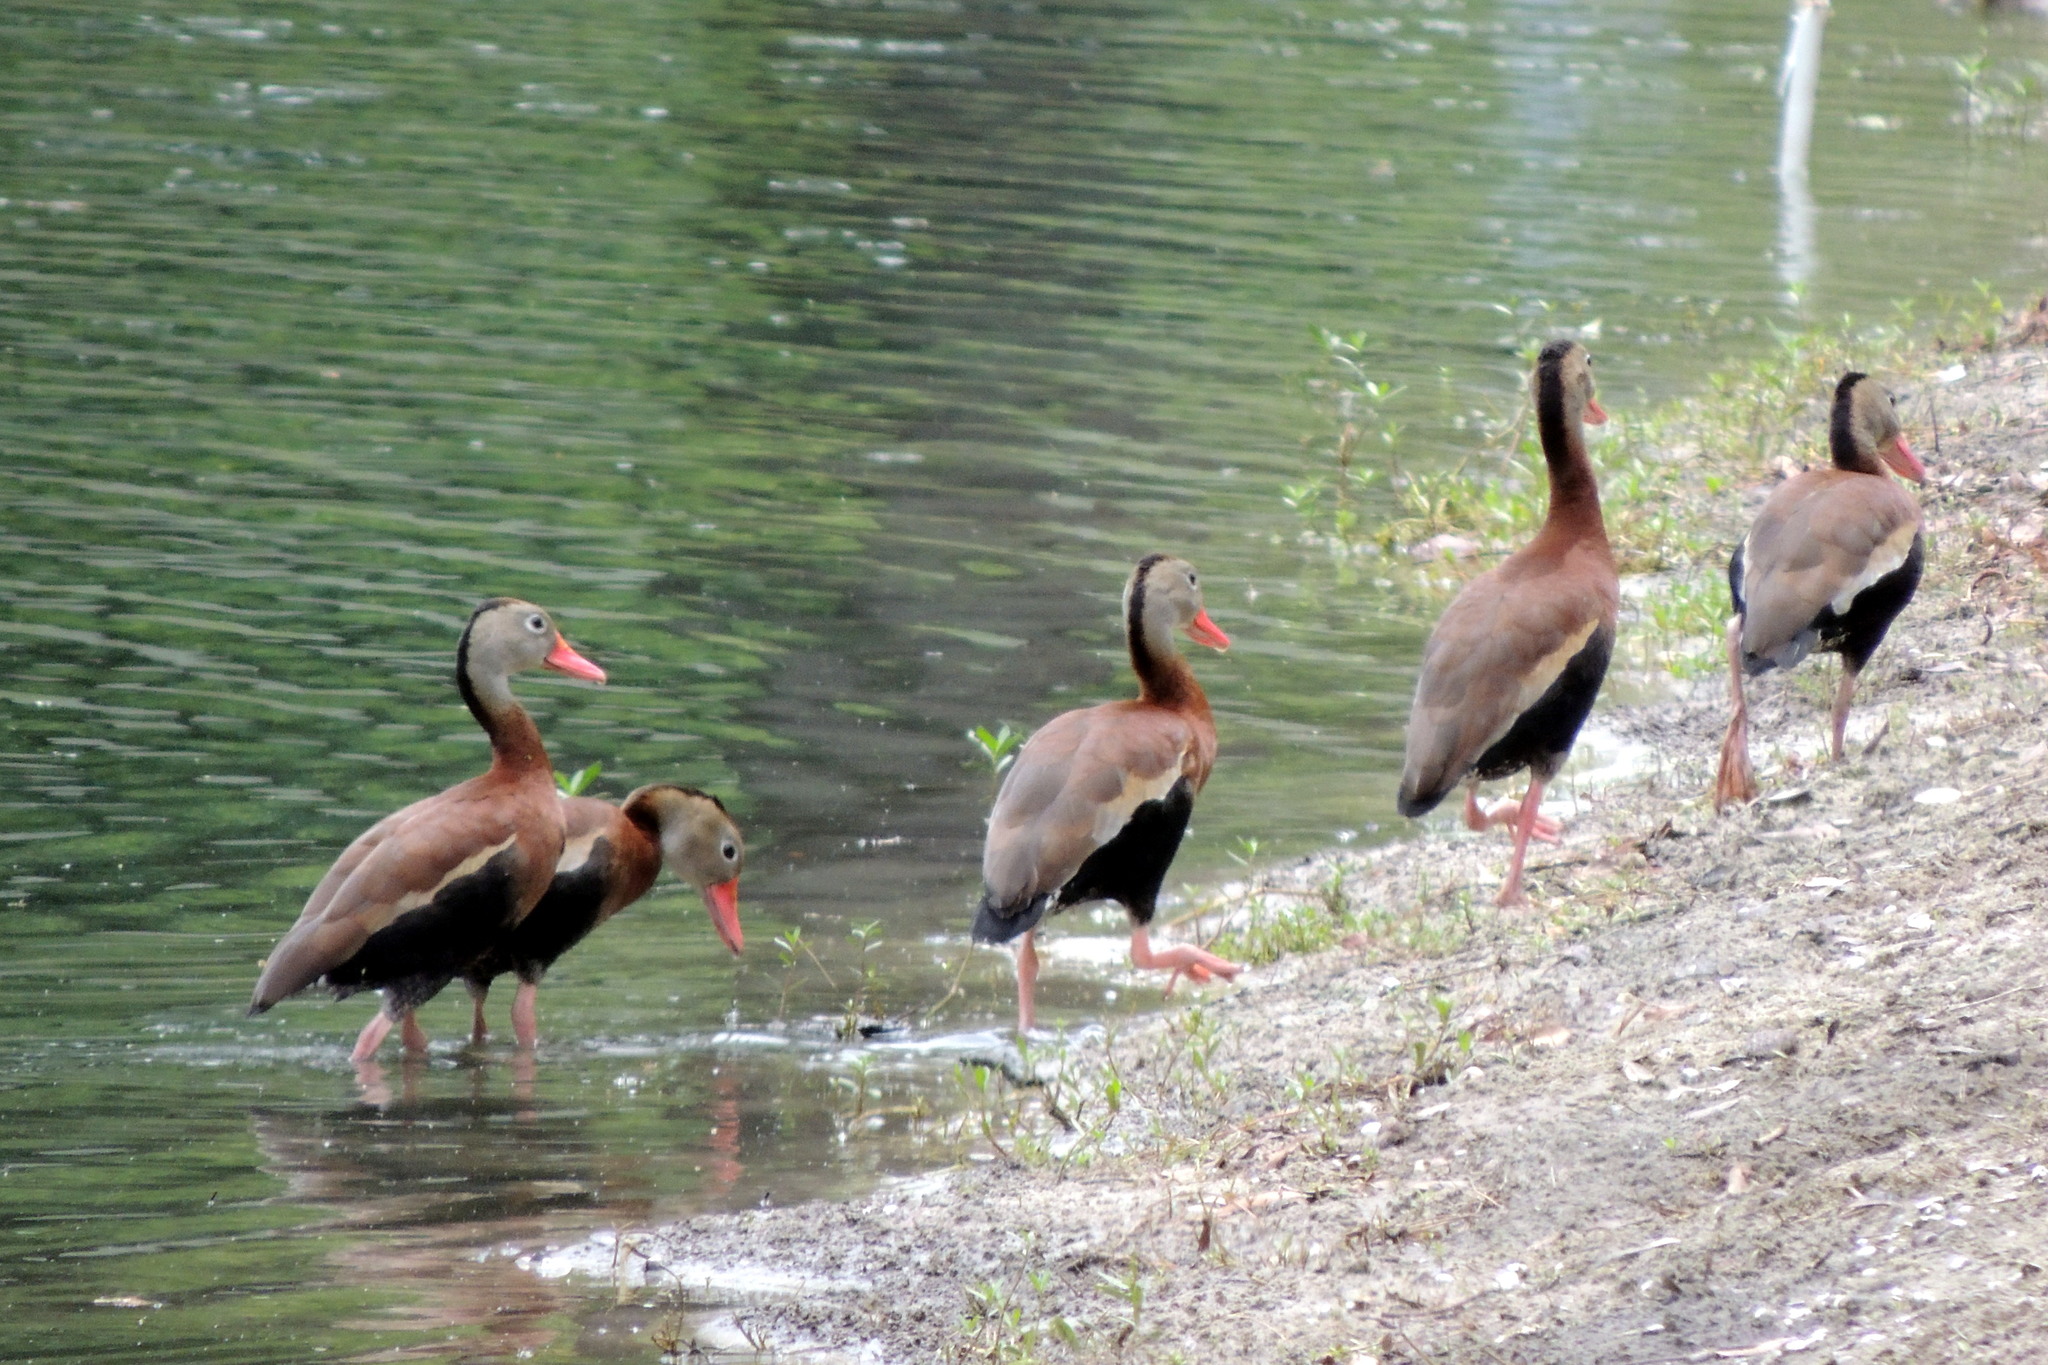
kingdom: Animalia
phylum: Chordata
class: Aves
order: Anseriformes
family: Anatidae
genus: Dendrocygna
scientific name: Dendrocygna autumnalis
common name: Black-bellied whistling duck
